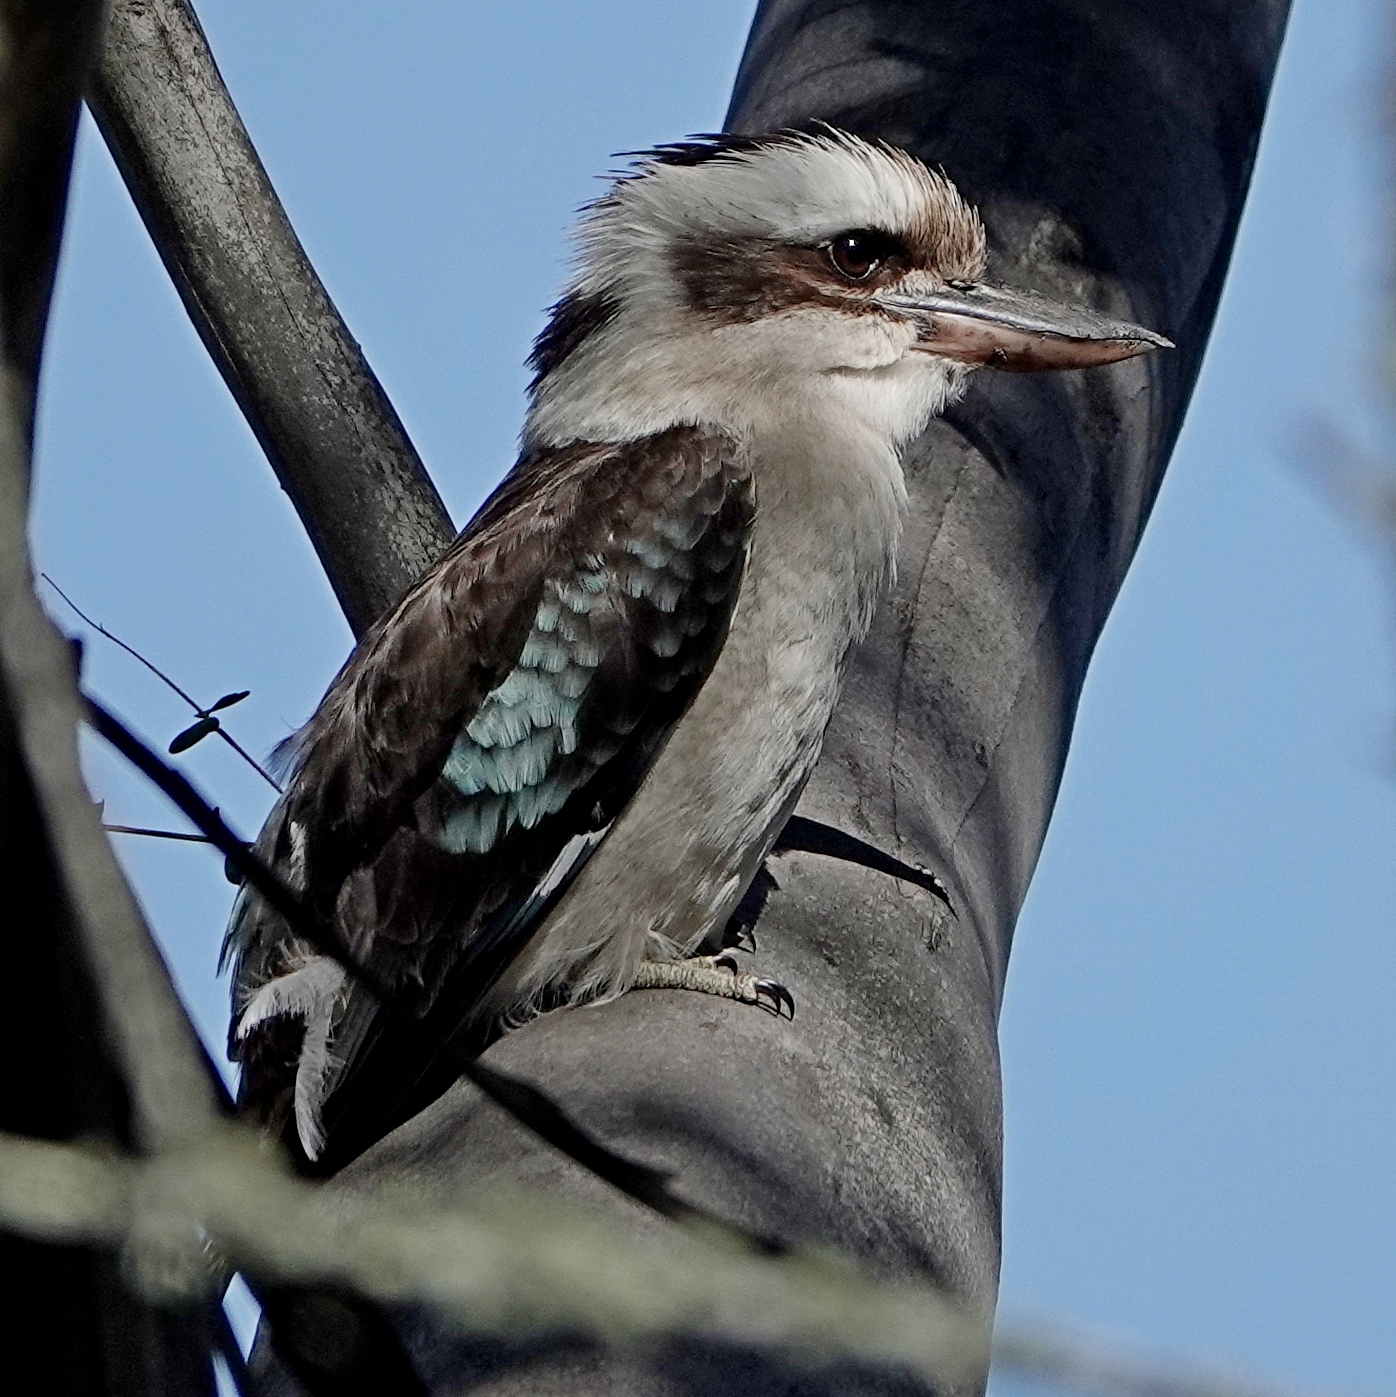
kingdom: Animalia
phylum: Chordata
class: Aves
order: Coraciiformes
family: Alcedinidae
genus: Dacelo
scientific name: Dacelo novaeguineae
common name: Laughing kookaburra
